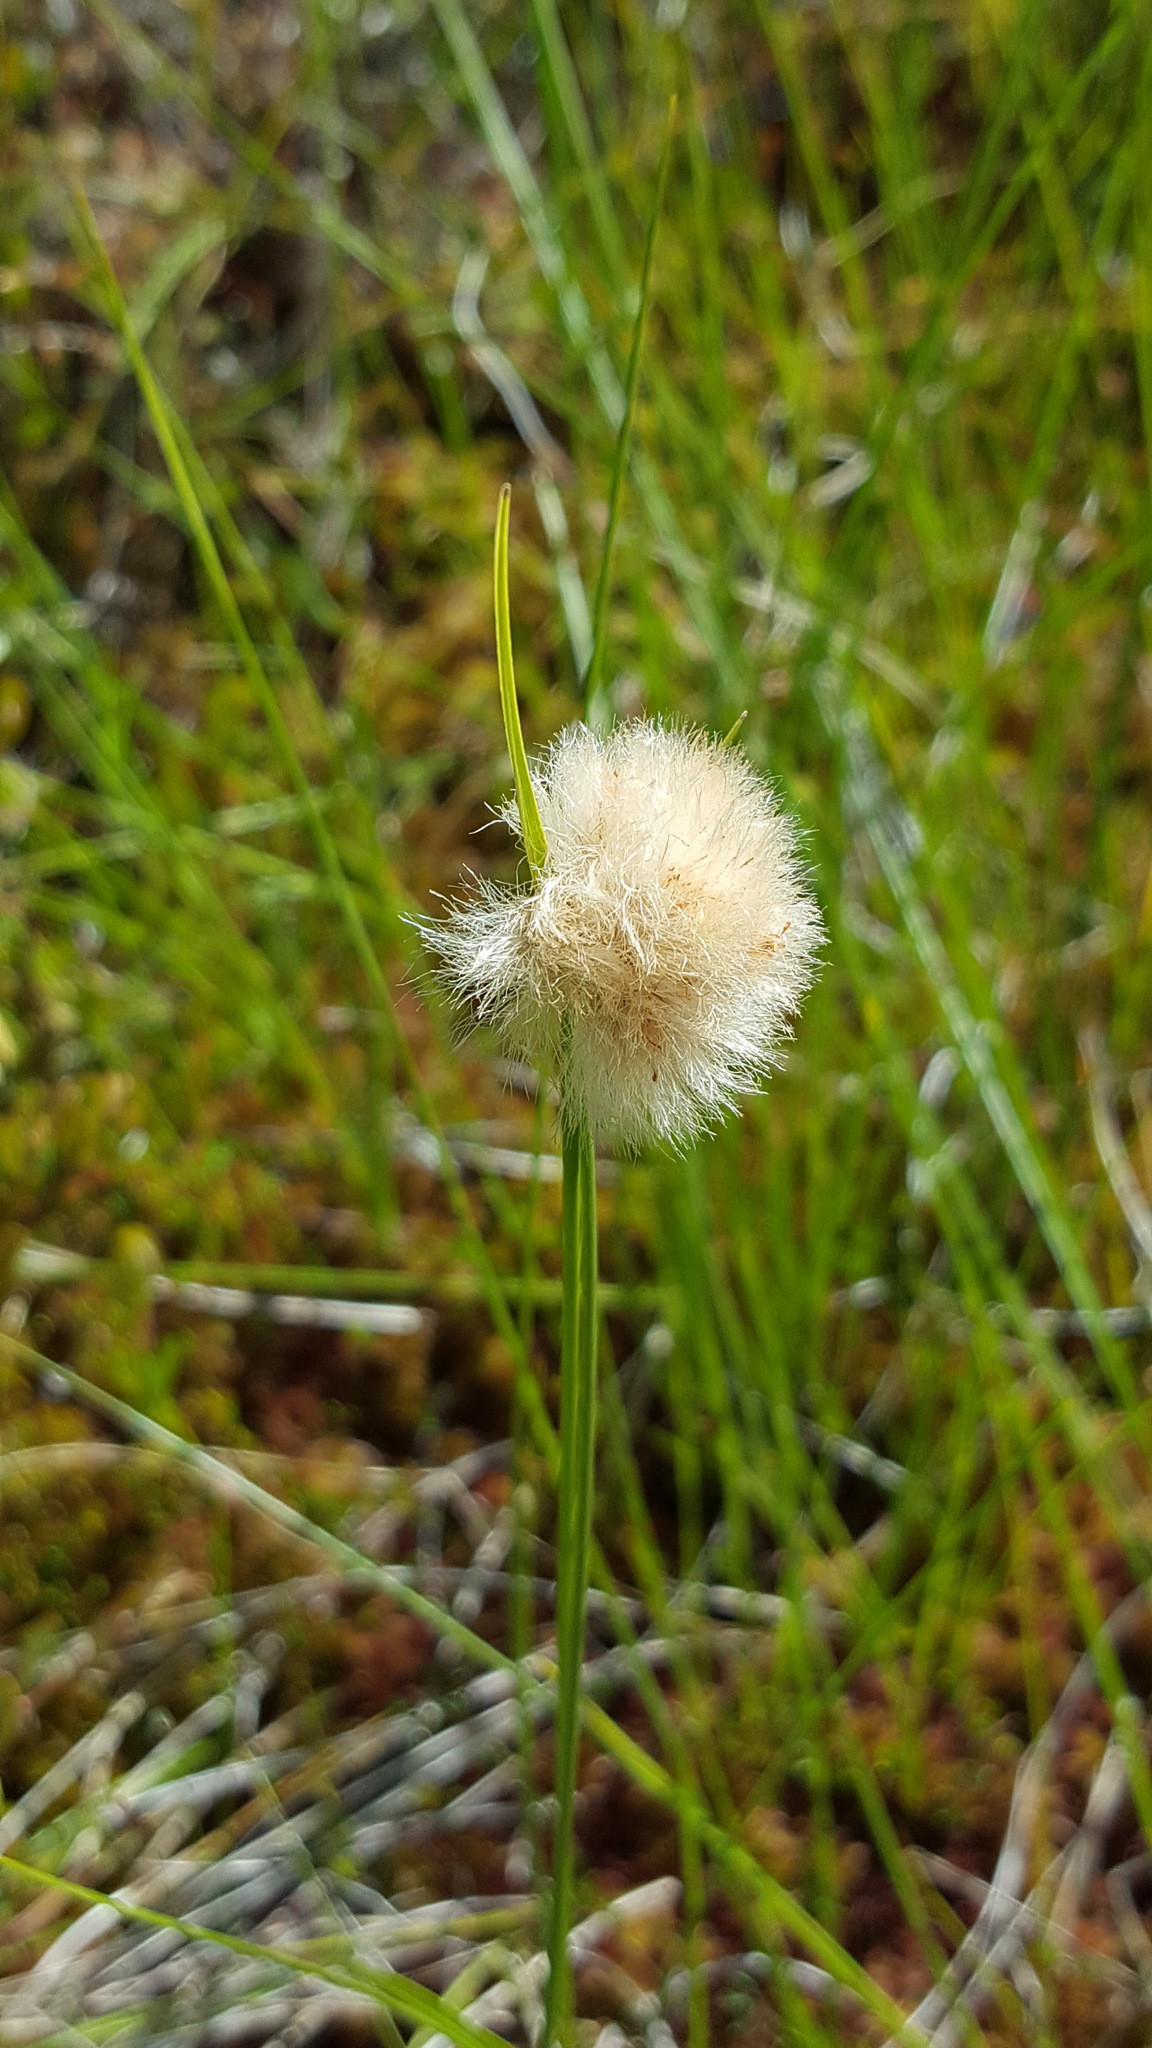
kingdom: Plantae
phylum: Tracheophyta
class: Liliopsida
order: Poales
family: Cyperaceae
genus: Eriophorum
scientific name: Eriophorum virginicum
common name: Tawny cottongrass
